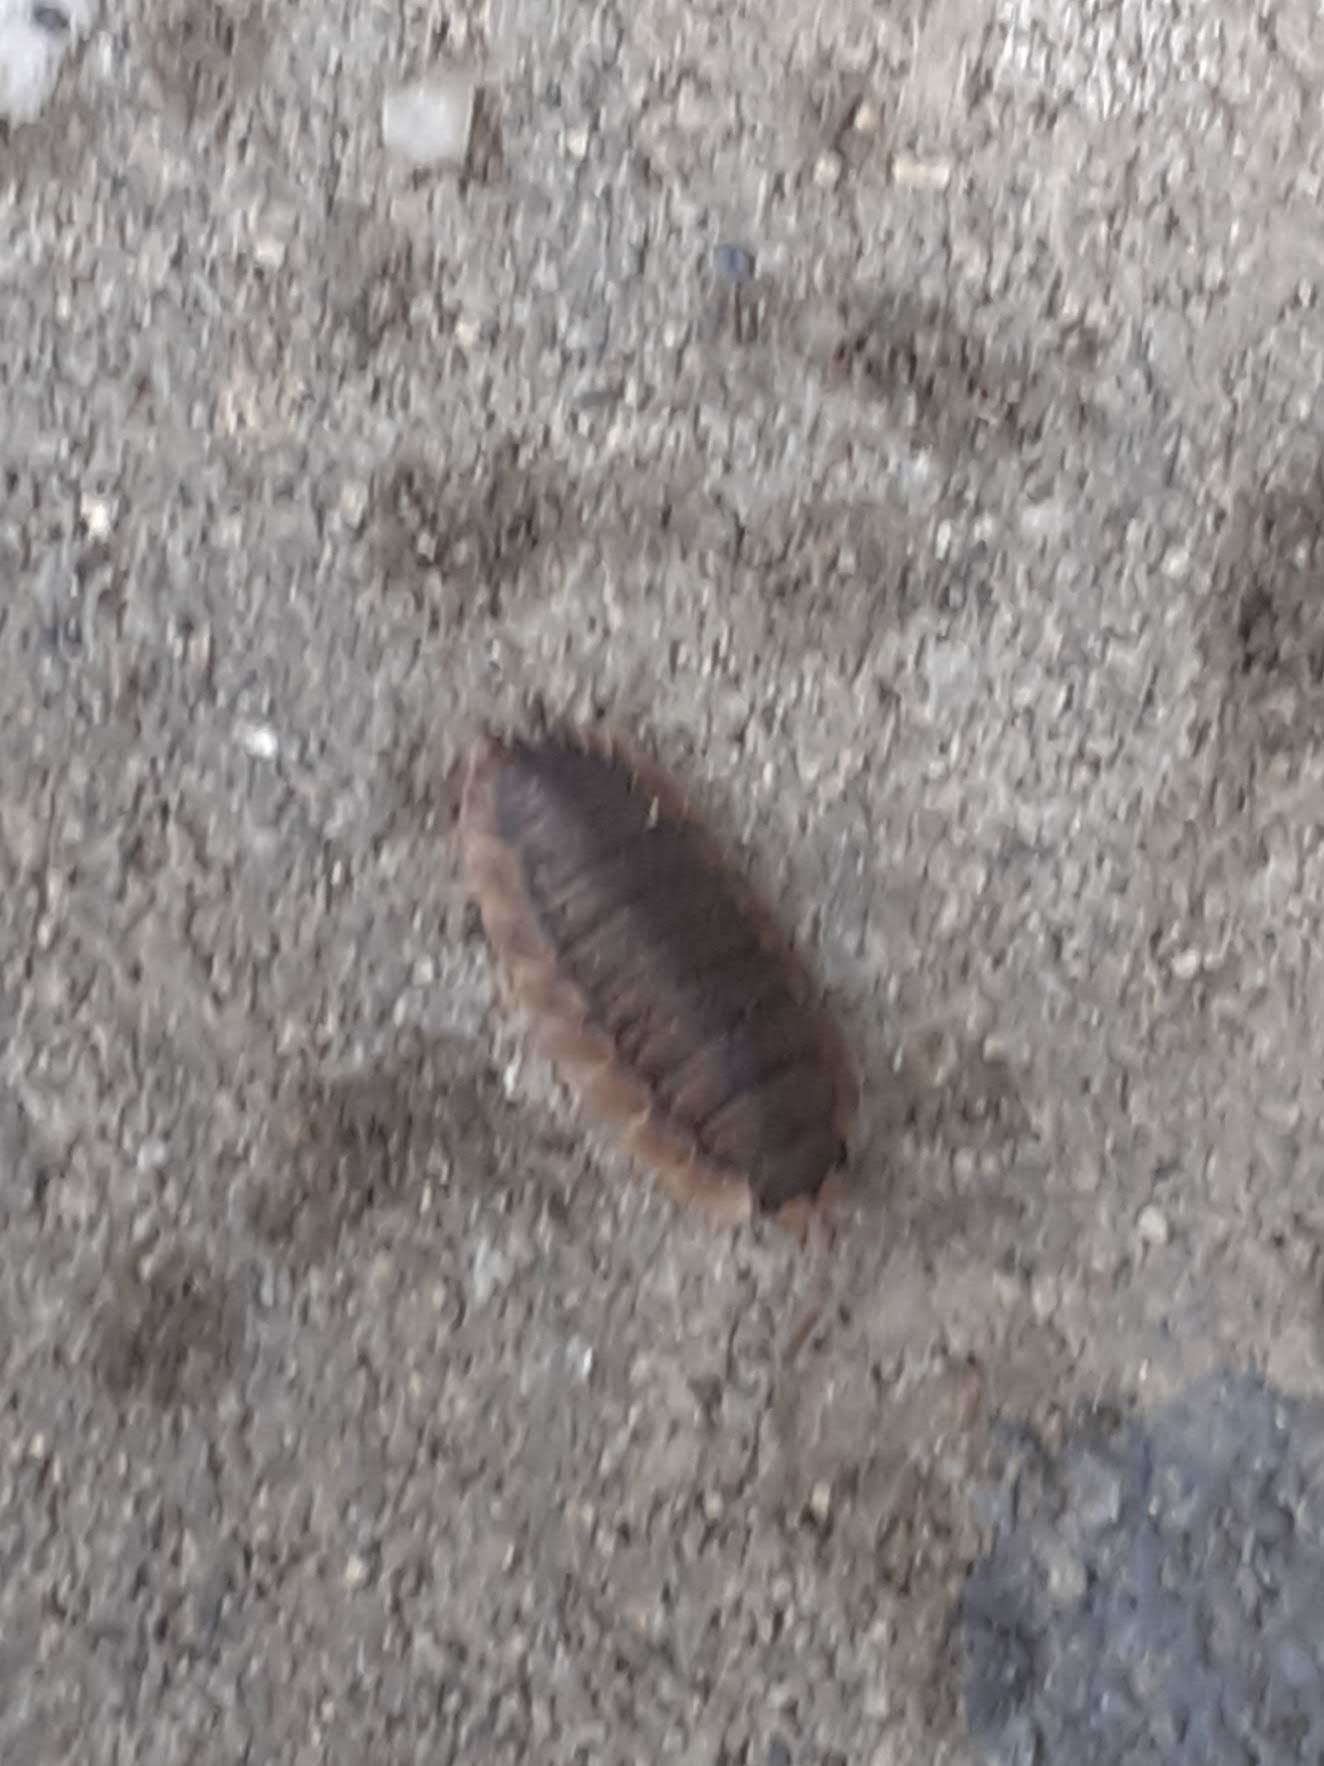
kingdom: Animalia
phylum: Arthropoda
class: Malacostraca
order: Isopoda
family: Porcellionidae
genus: Porcellio
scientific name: Porcellio scaber
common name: Common rough woodlouse
